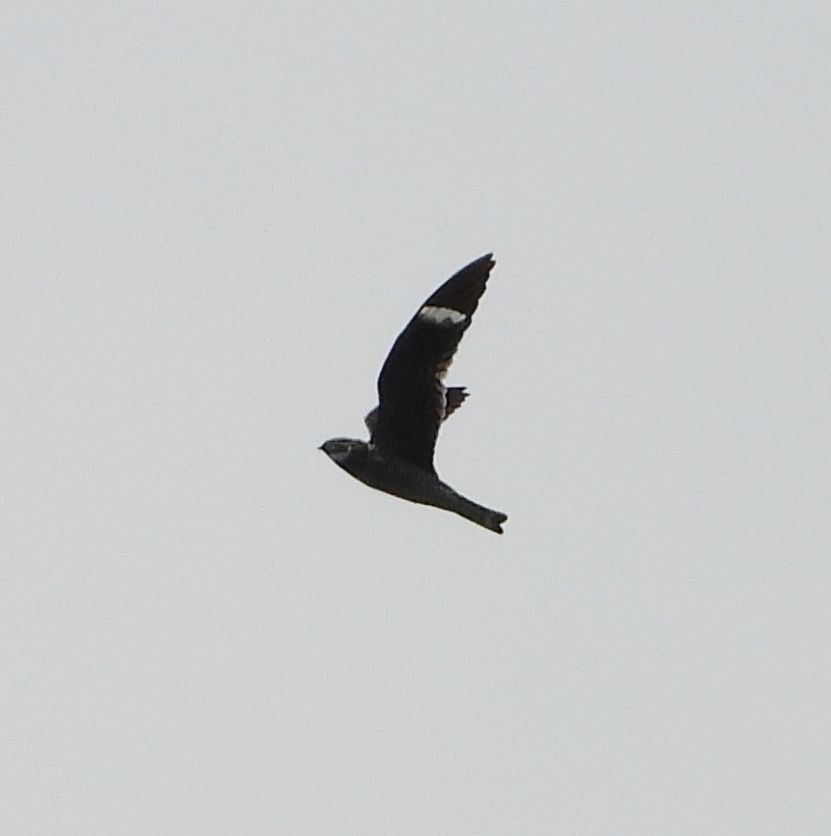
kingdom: Animalia
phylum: Chordata
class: Aves
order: Caprimulgiformes
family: Caprimulgidae
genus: Chordeiles
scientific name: Chordeiles minor
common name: Common nighthawk
